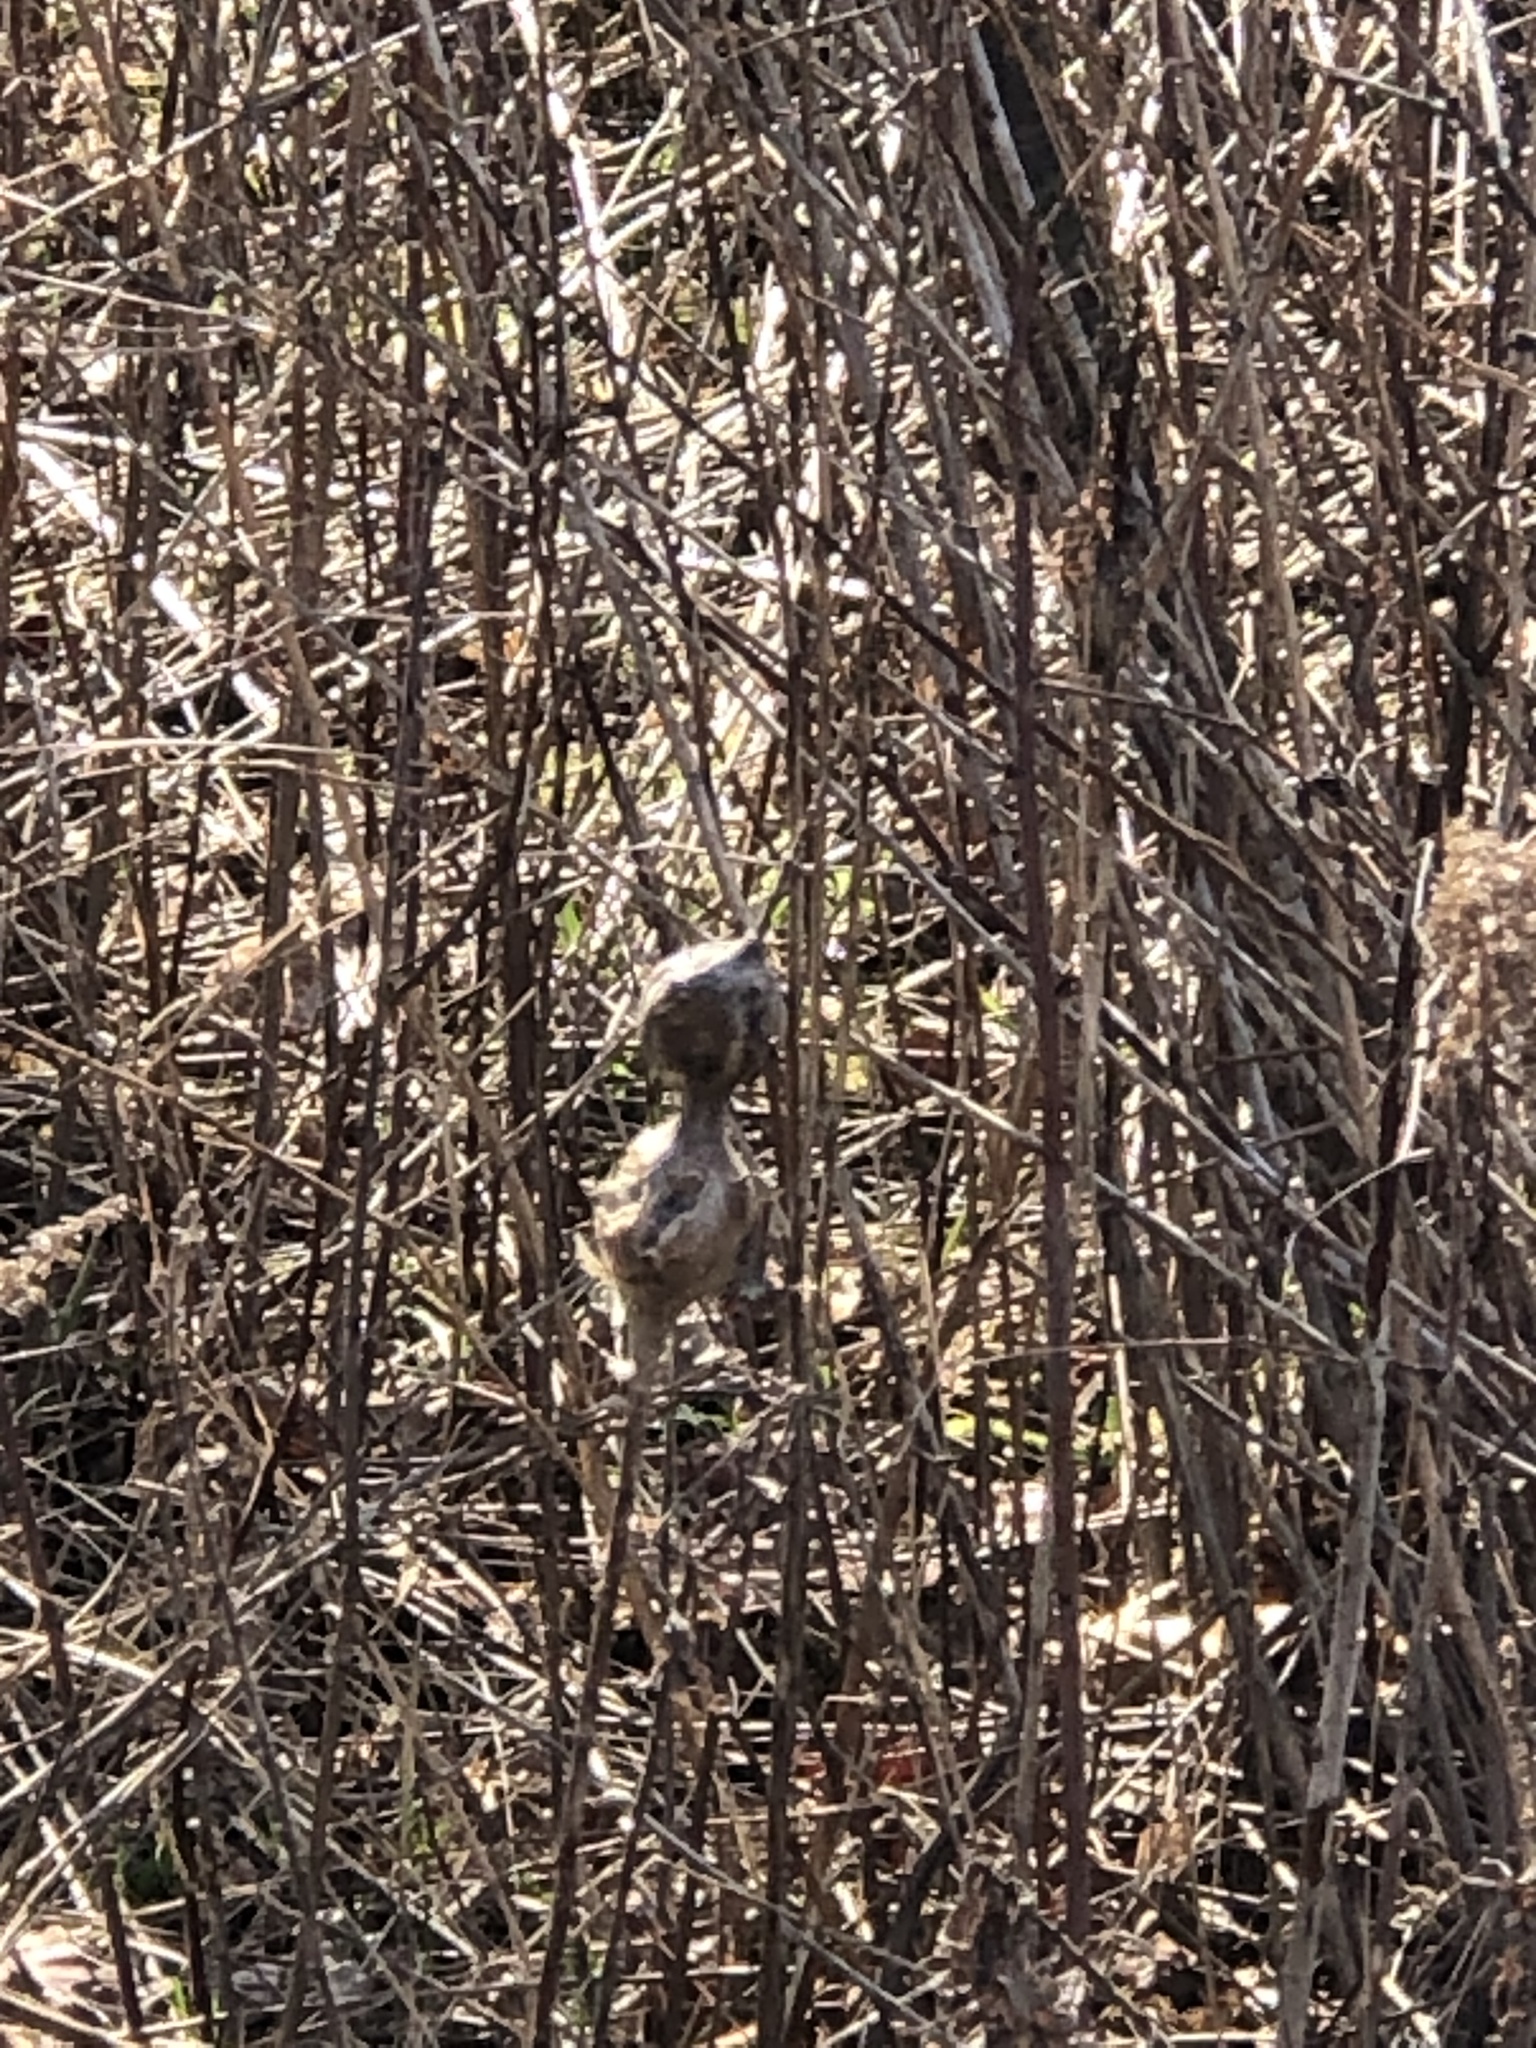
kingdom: Animalia
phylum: Arthropoda
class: Insecta
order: Diptera
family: Tephritidae
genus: Eurosta
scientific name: Eurosta solidaginis
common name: Goldenrod gall fly
